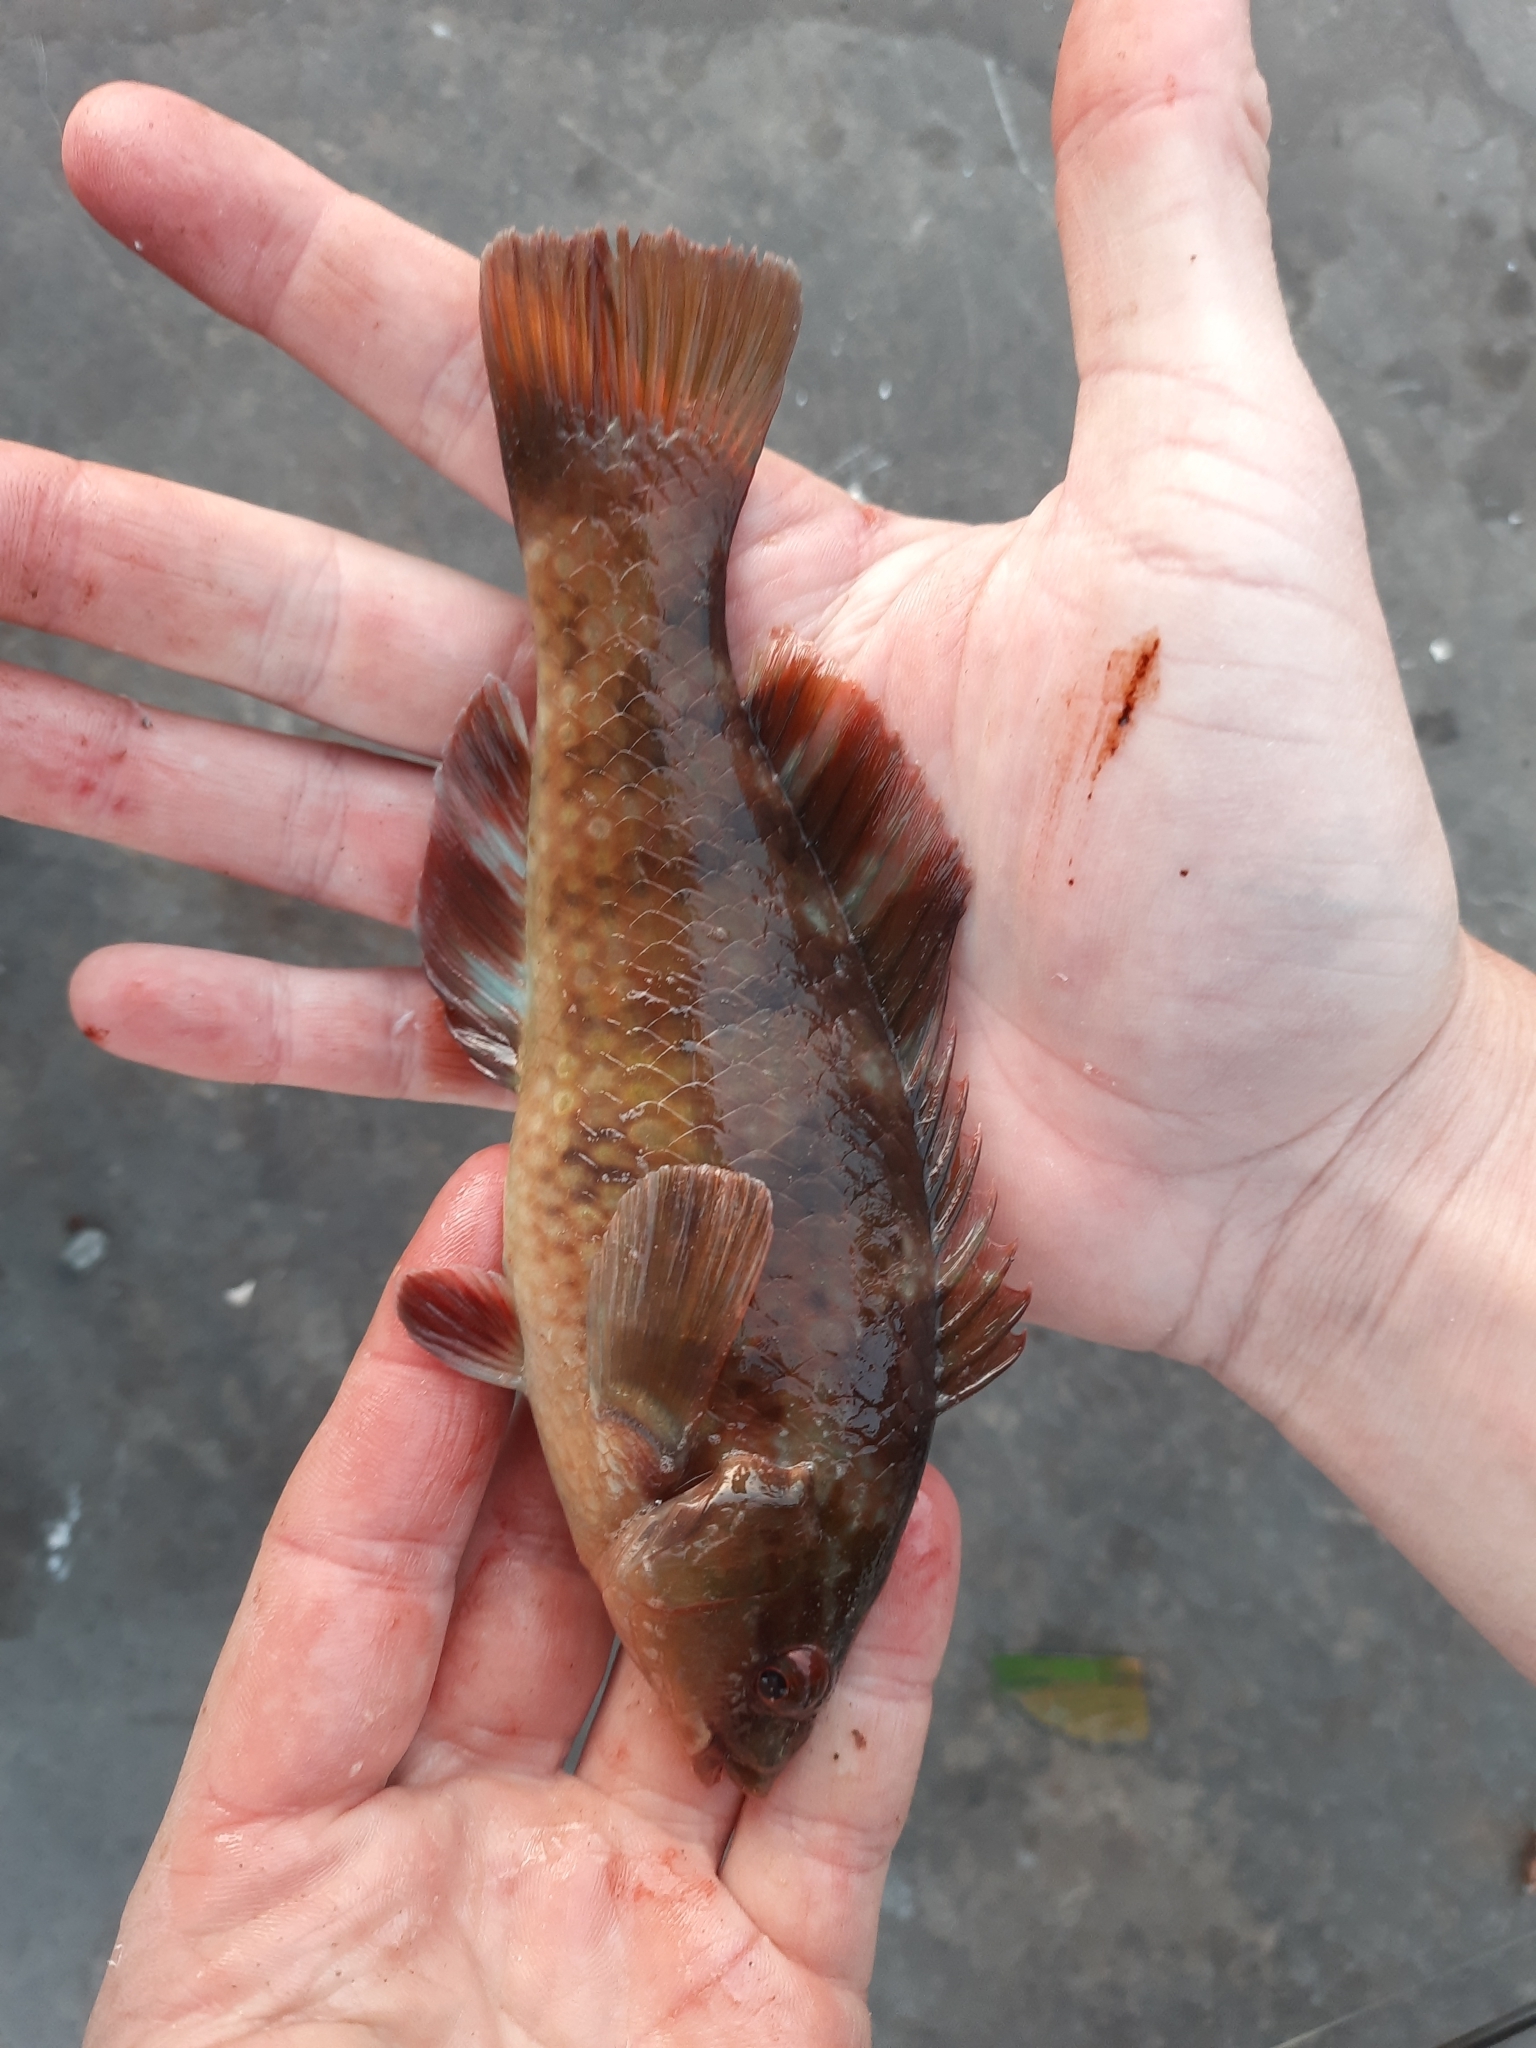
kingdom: Animalia
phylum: Chordata
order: Perciformes
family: Labridae
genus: Notolabrus
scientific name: Notolabrus fucicola
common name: Banded parrotfish
